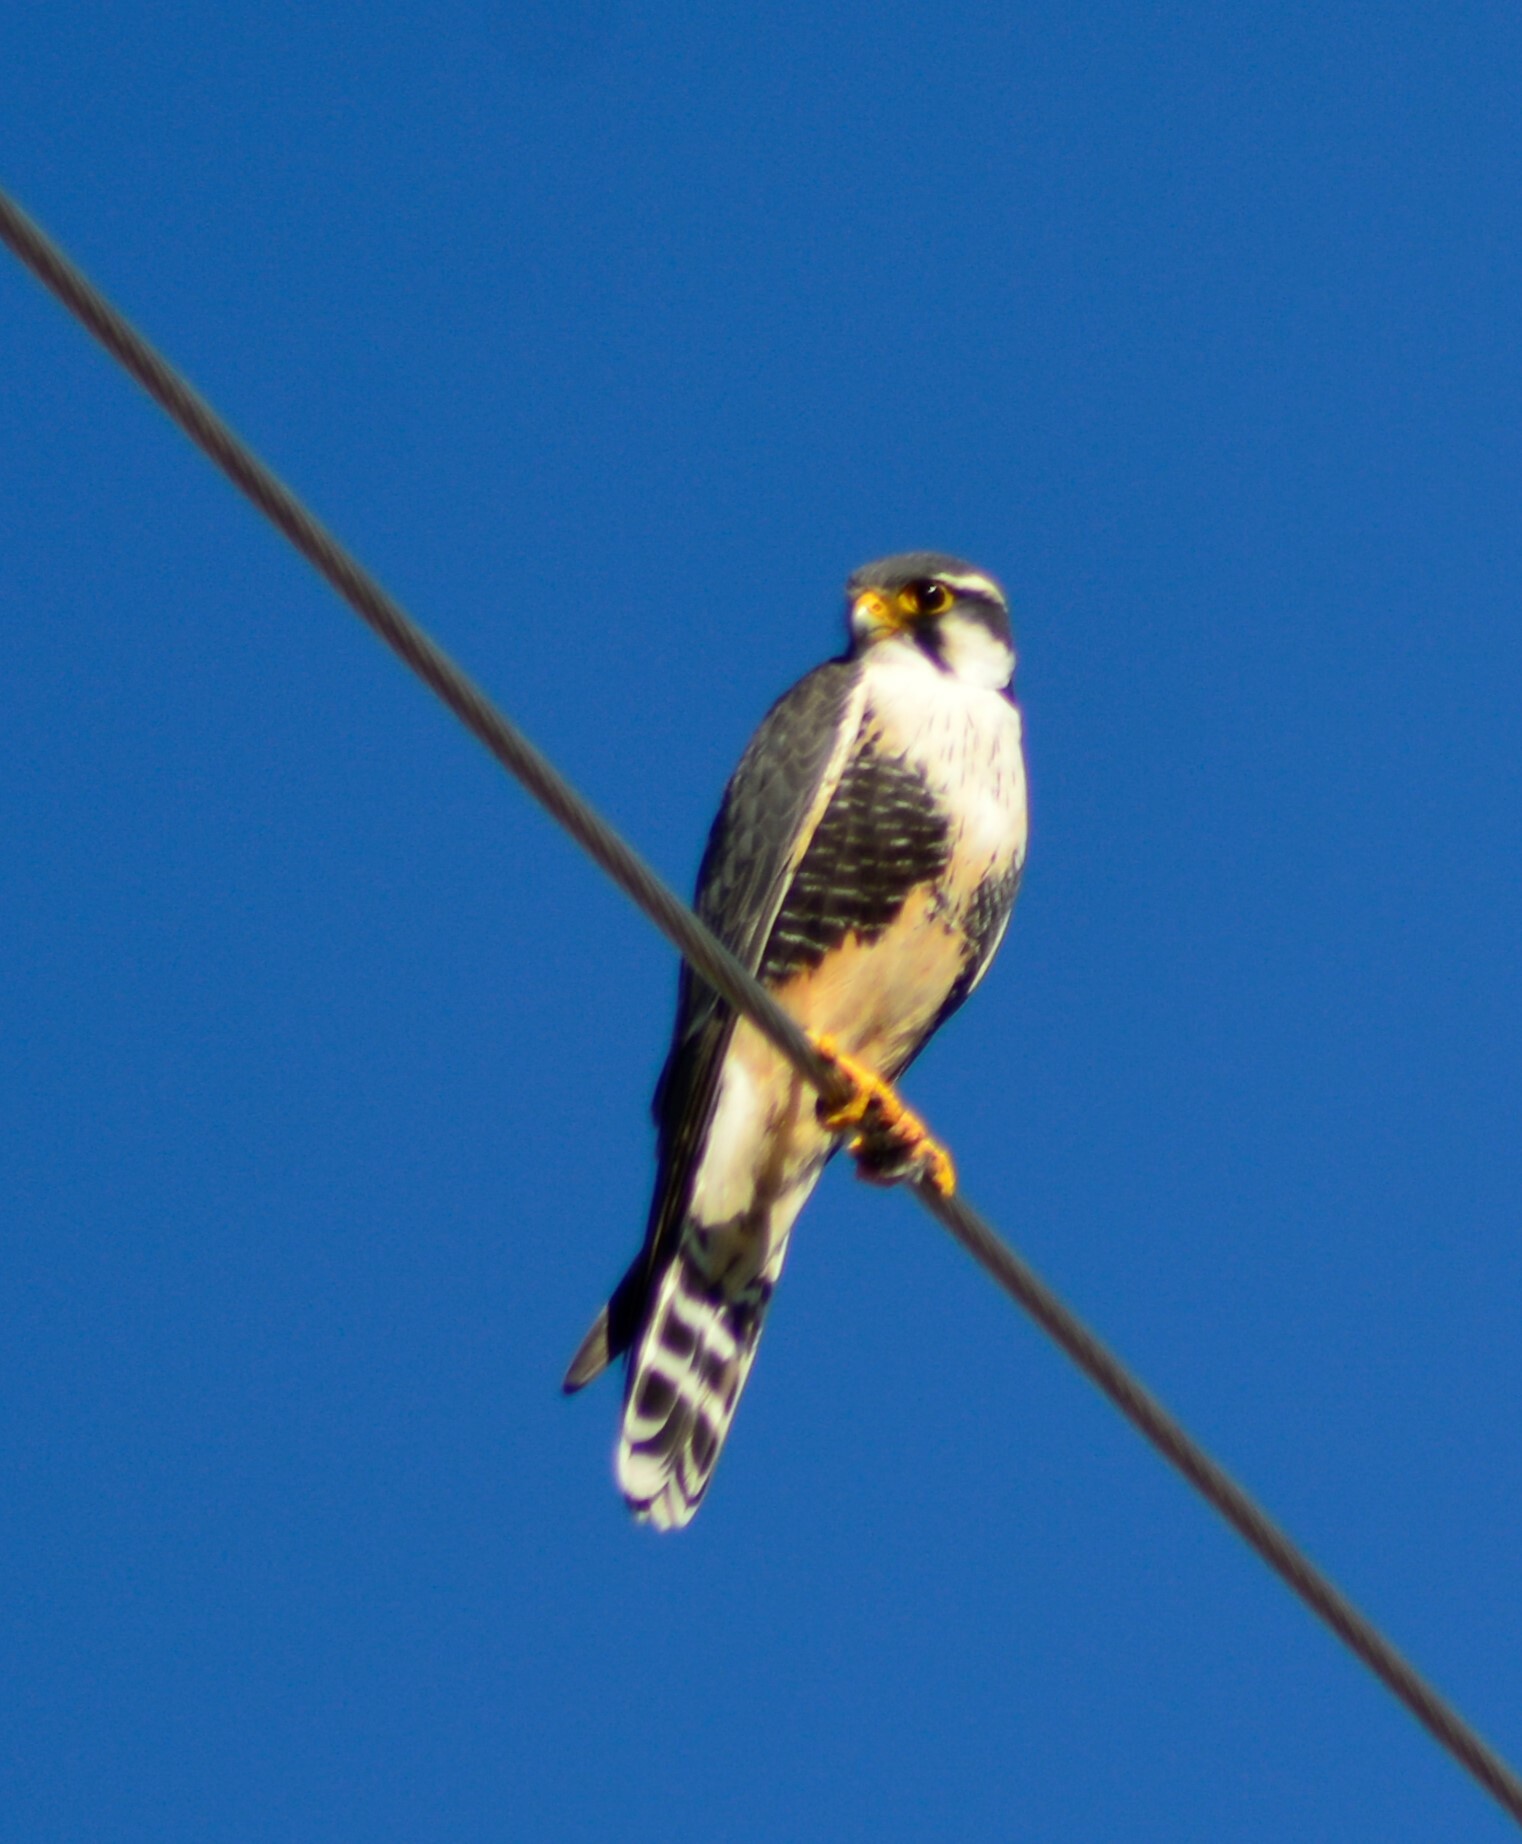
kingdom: Animalia
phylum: Chordata
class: Aves
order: Falconiformes
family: Falconidae
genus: Falco
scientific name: Falco femoralis
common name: Aplomado falcon
